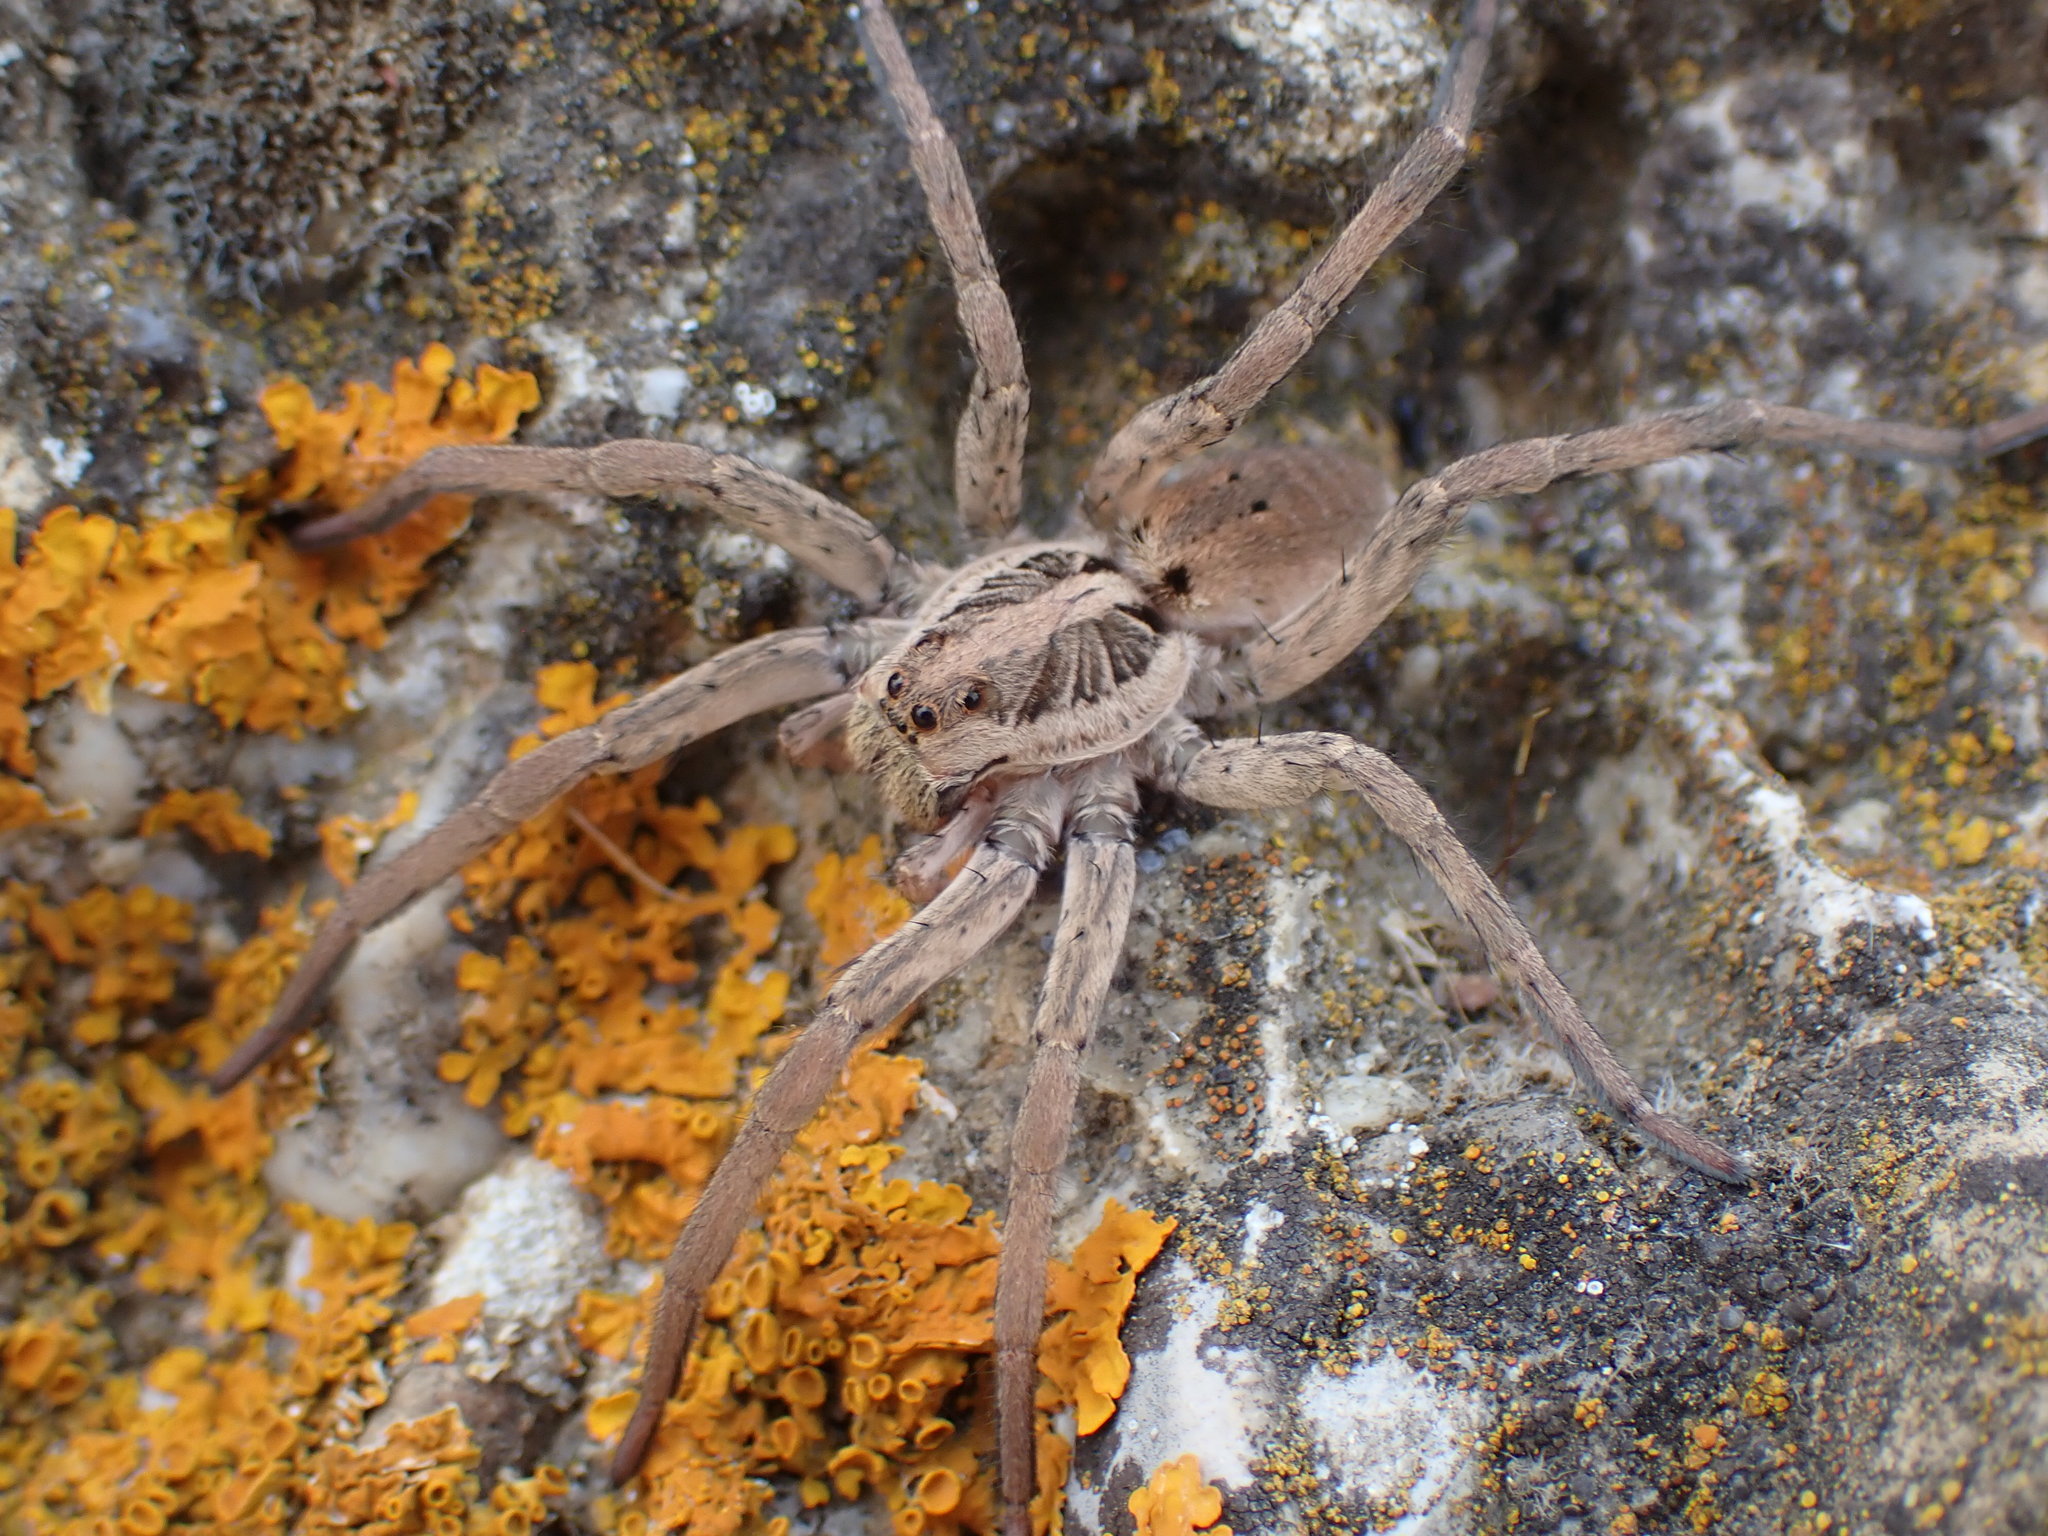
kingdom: Animalia
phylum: Arthropoda
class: Arachnida
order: Araneae
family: Lycosidae
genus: Hogna
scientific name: Hogna radiata
